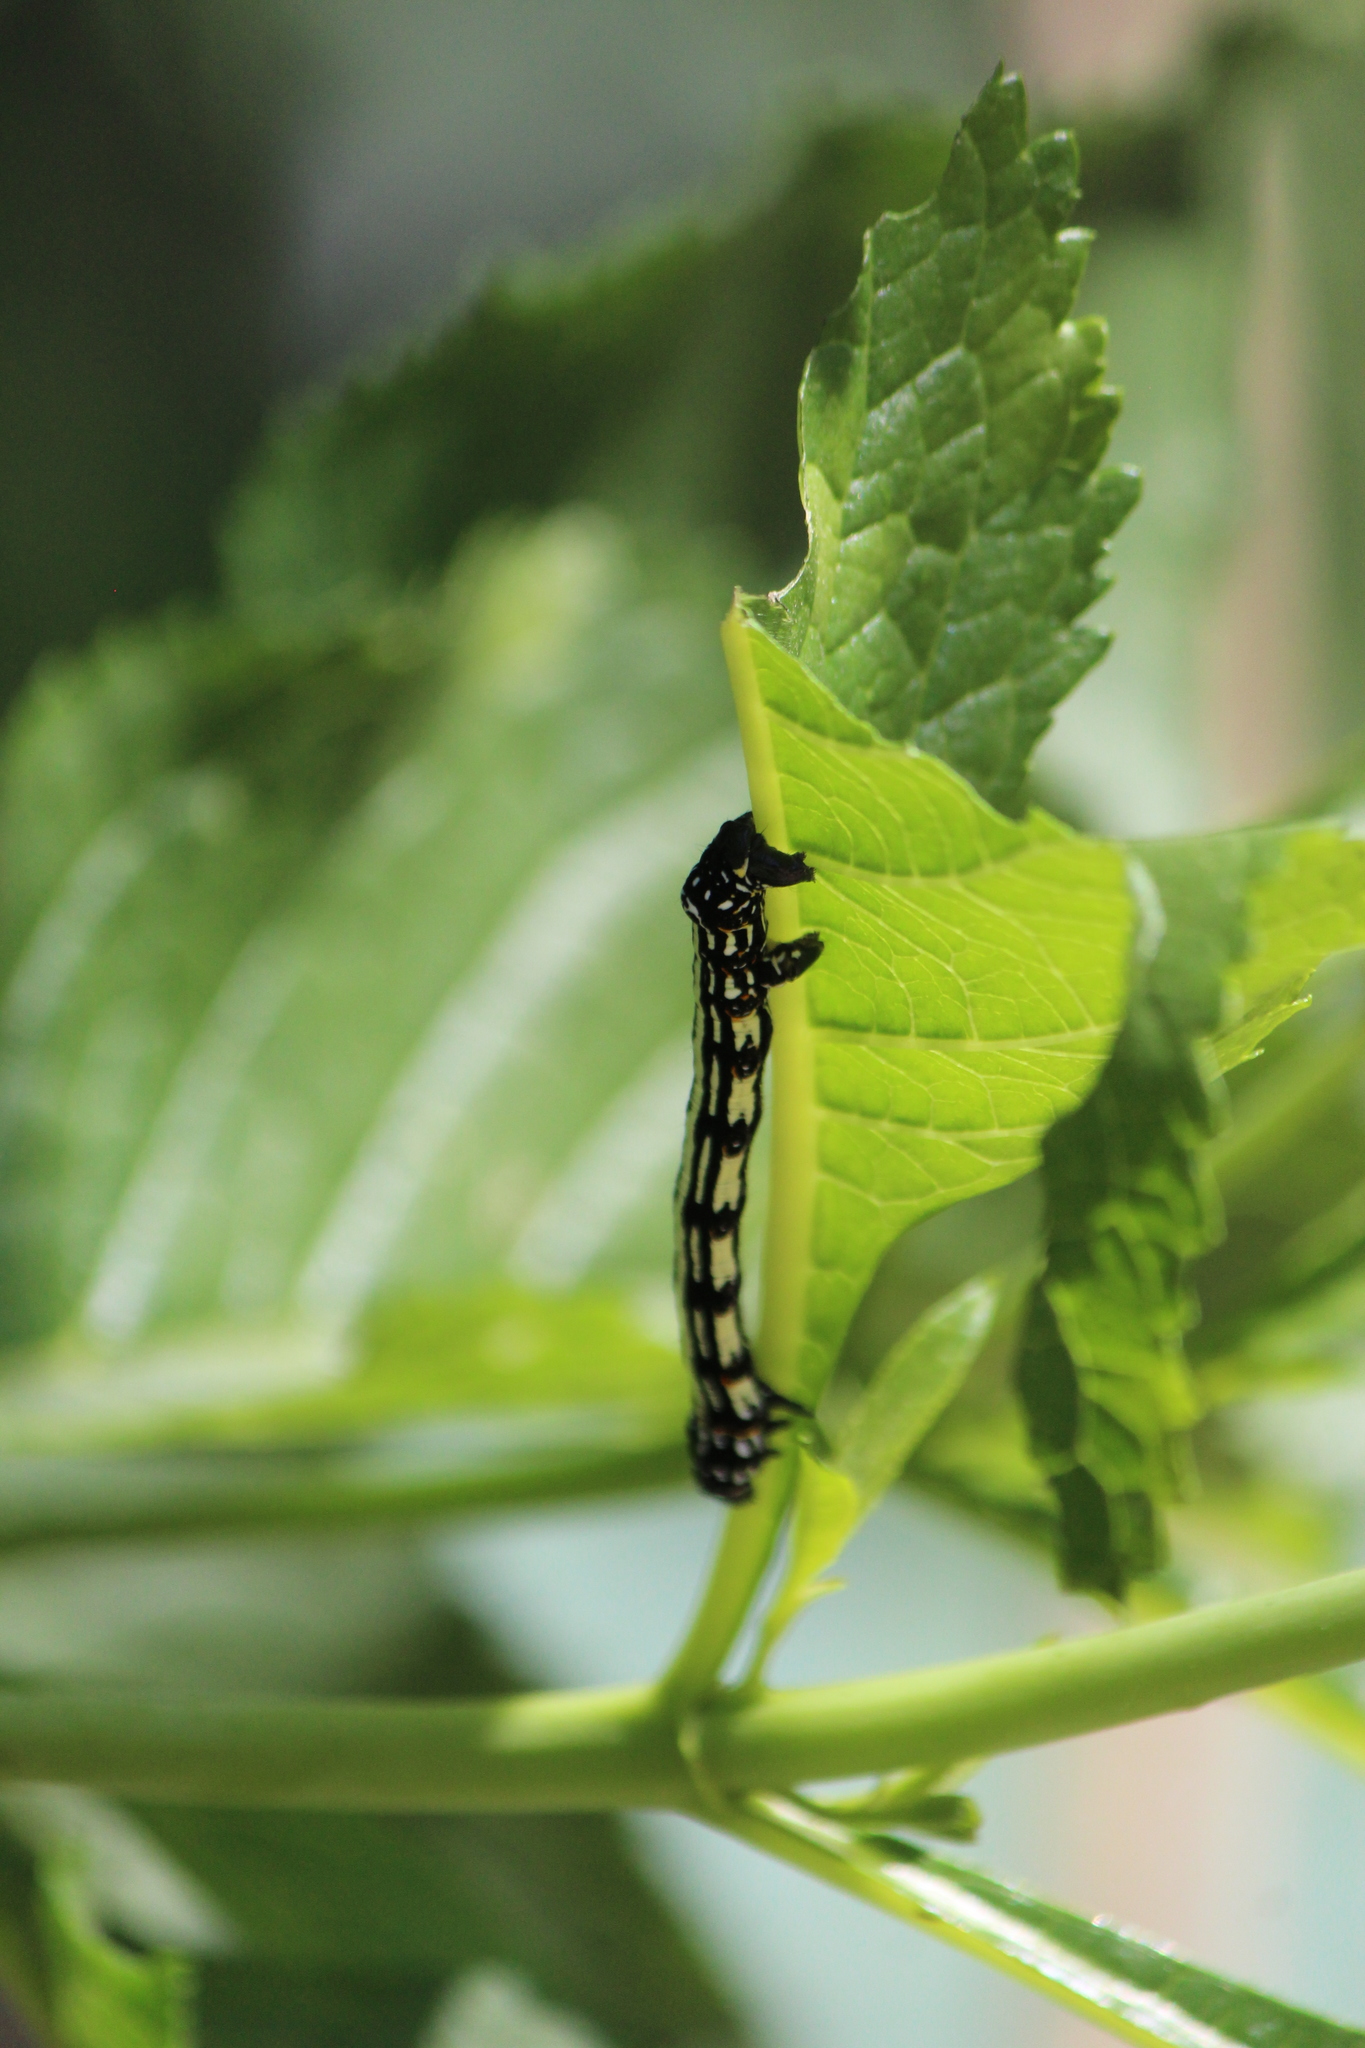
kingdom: Animalia
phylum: Arthropoda
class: Insecta
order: Lepidoptera
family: Geometridae
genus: Acronyctodes
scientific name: Acronyctodes mexicanaria
